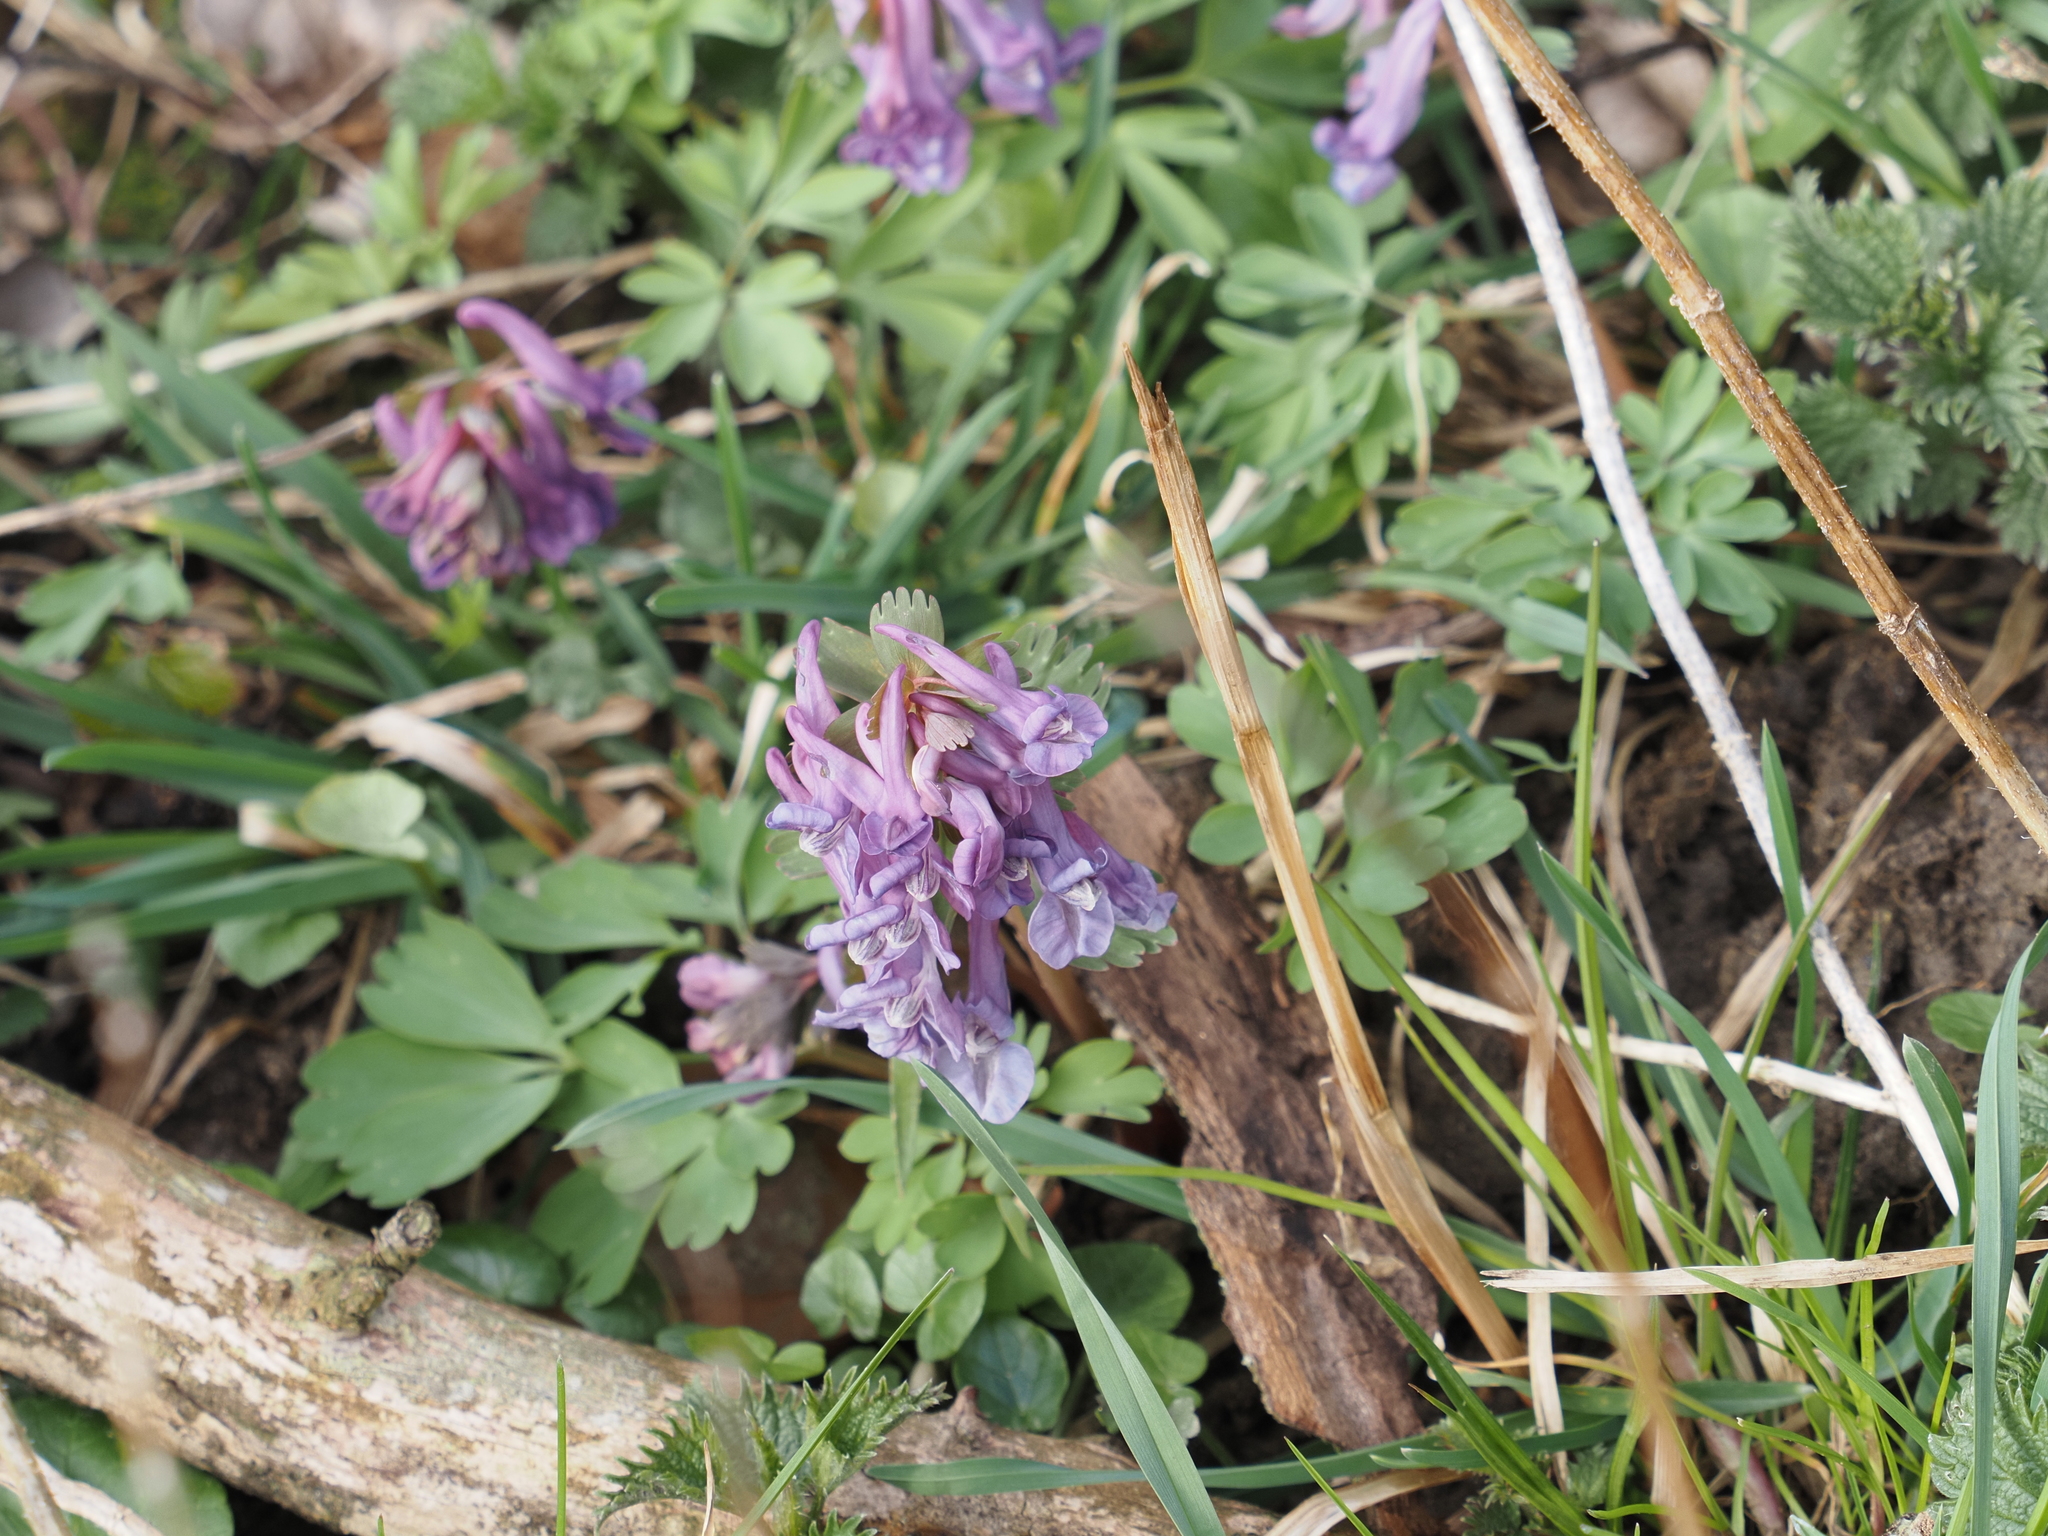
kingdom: Plantae
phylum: Tracheophyta
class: Magnoliopsida
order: Ranunculales
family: Papaveraceae
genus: Corydalis
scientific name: Corydalis solida
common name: Bird-in-a-bush
